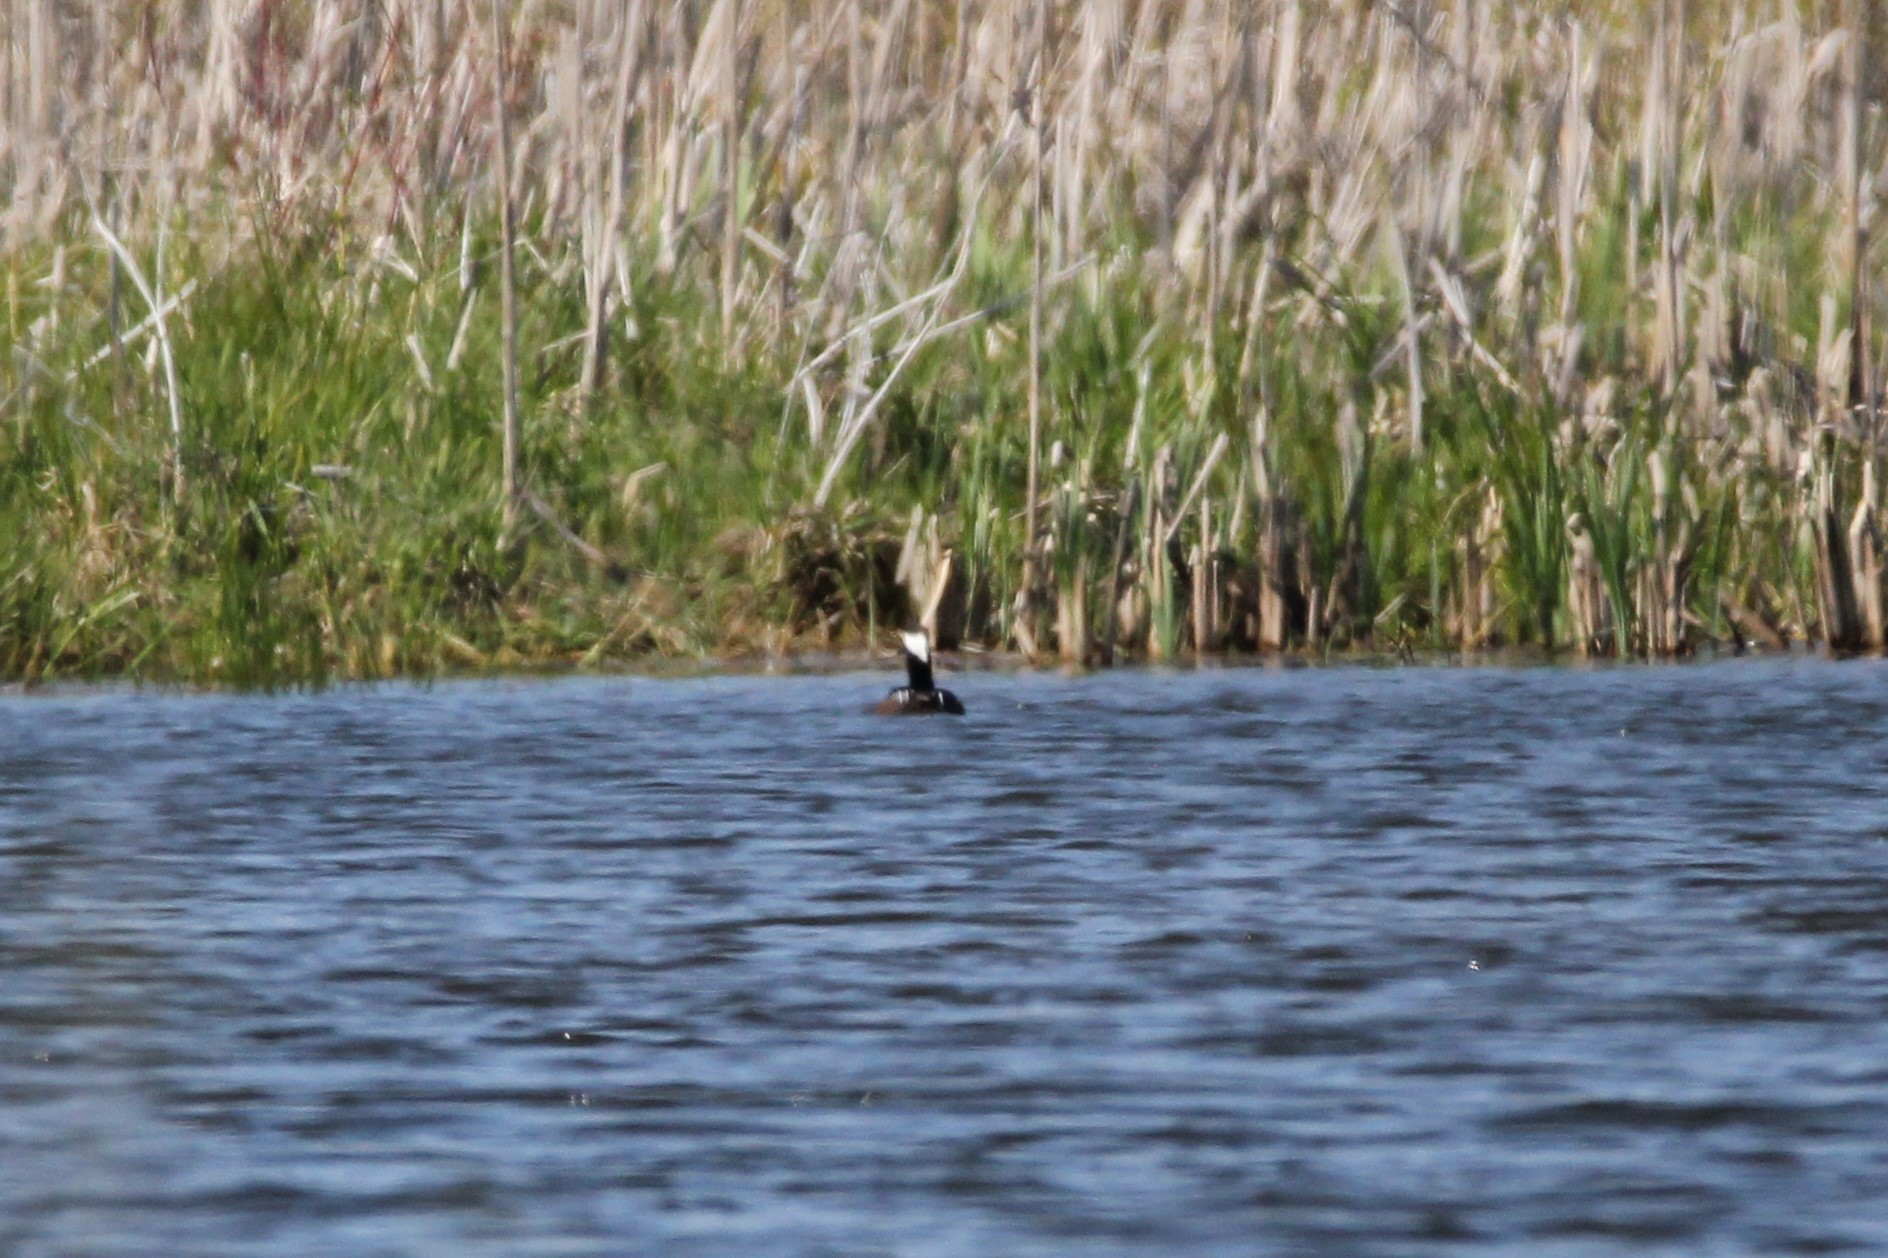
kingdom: Animalia
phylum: Chordata
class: Aves
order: Anseriformes
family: Anatidae
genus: Lophodytes
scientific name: Lophodytes cucullatus
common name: Hooded merganser
